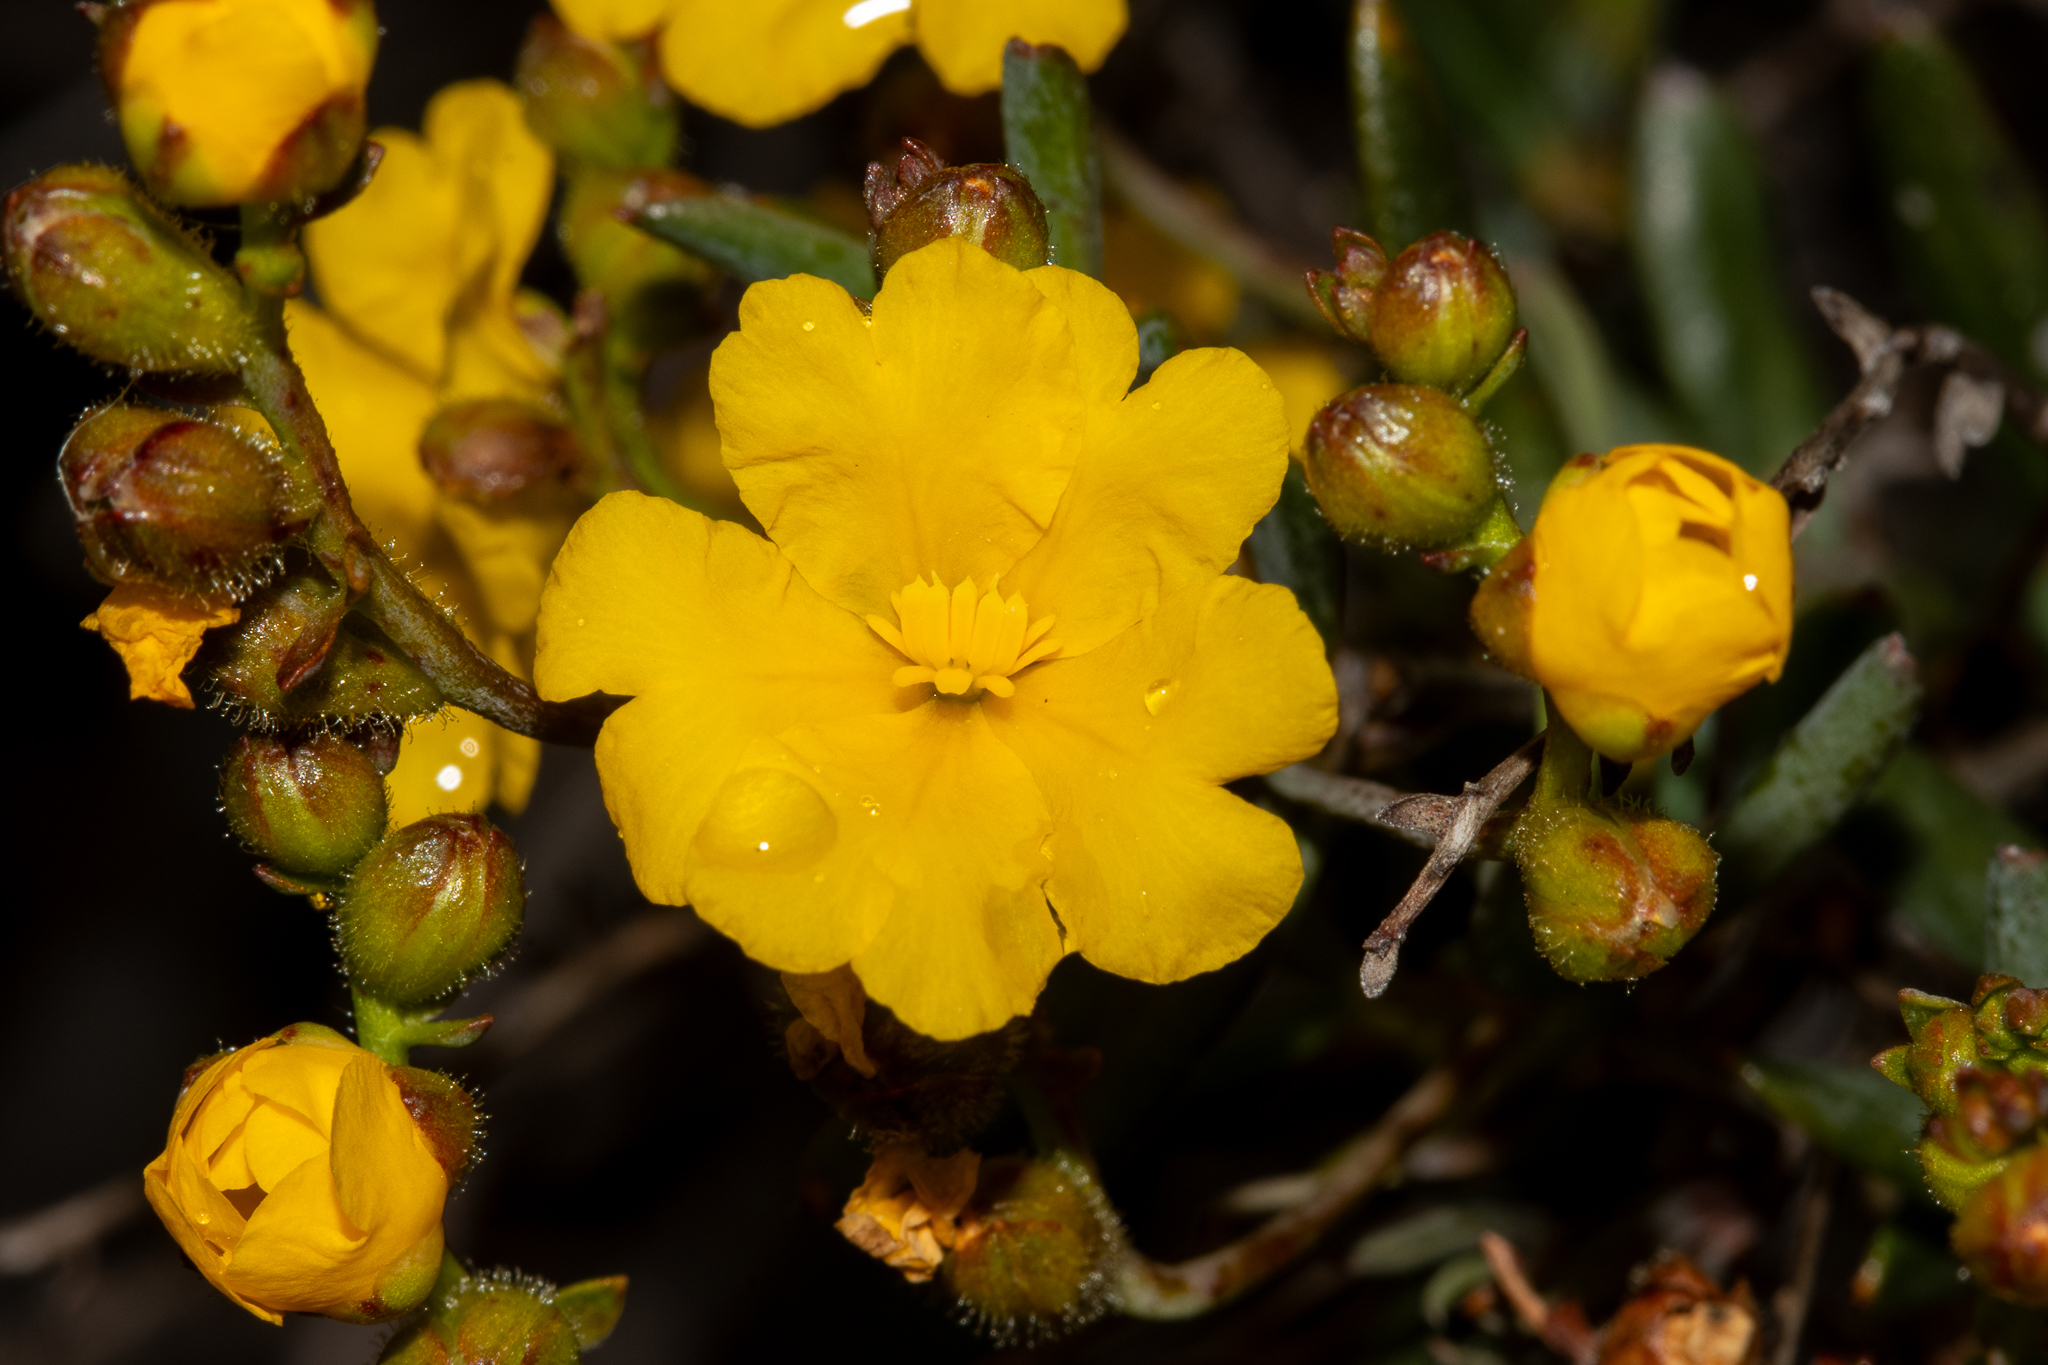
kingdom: Plantae
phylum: Tracheophyta
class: Magnoliopsida
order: Dilleniales
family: Dilleniaceae
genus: Hibbertia
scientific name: Hibbertia subglabra
